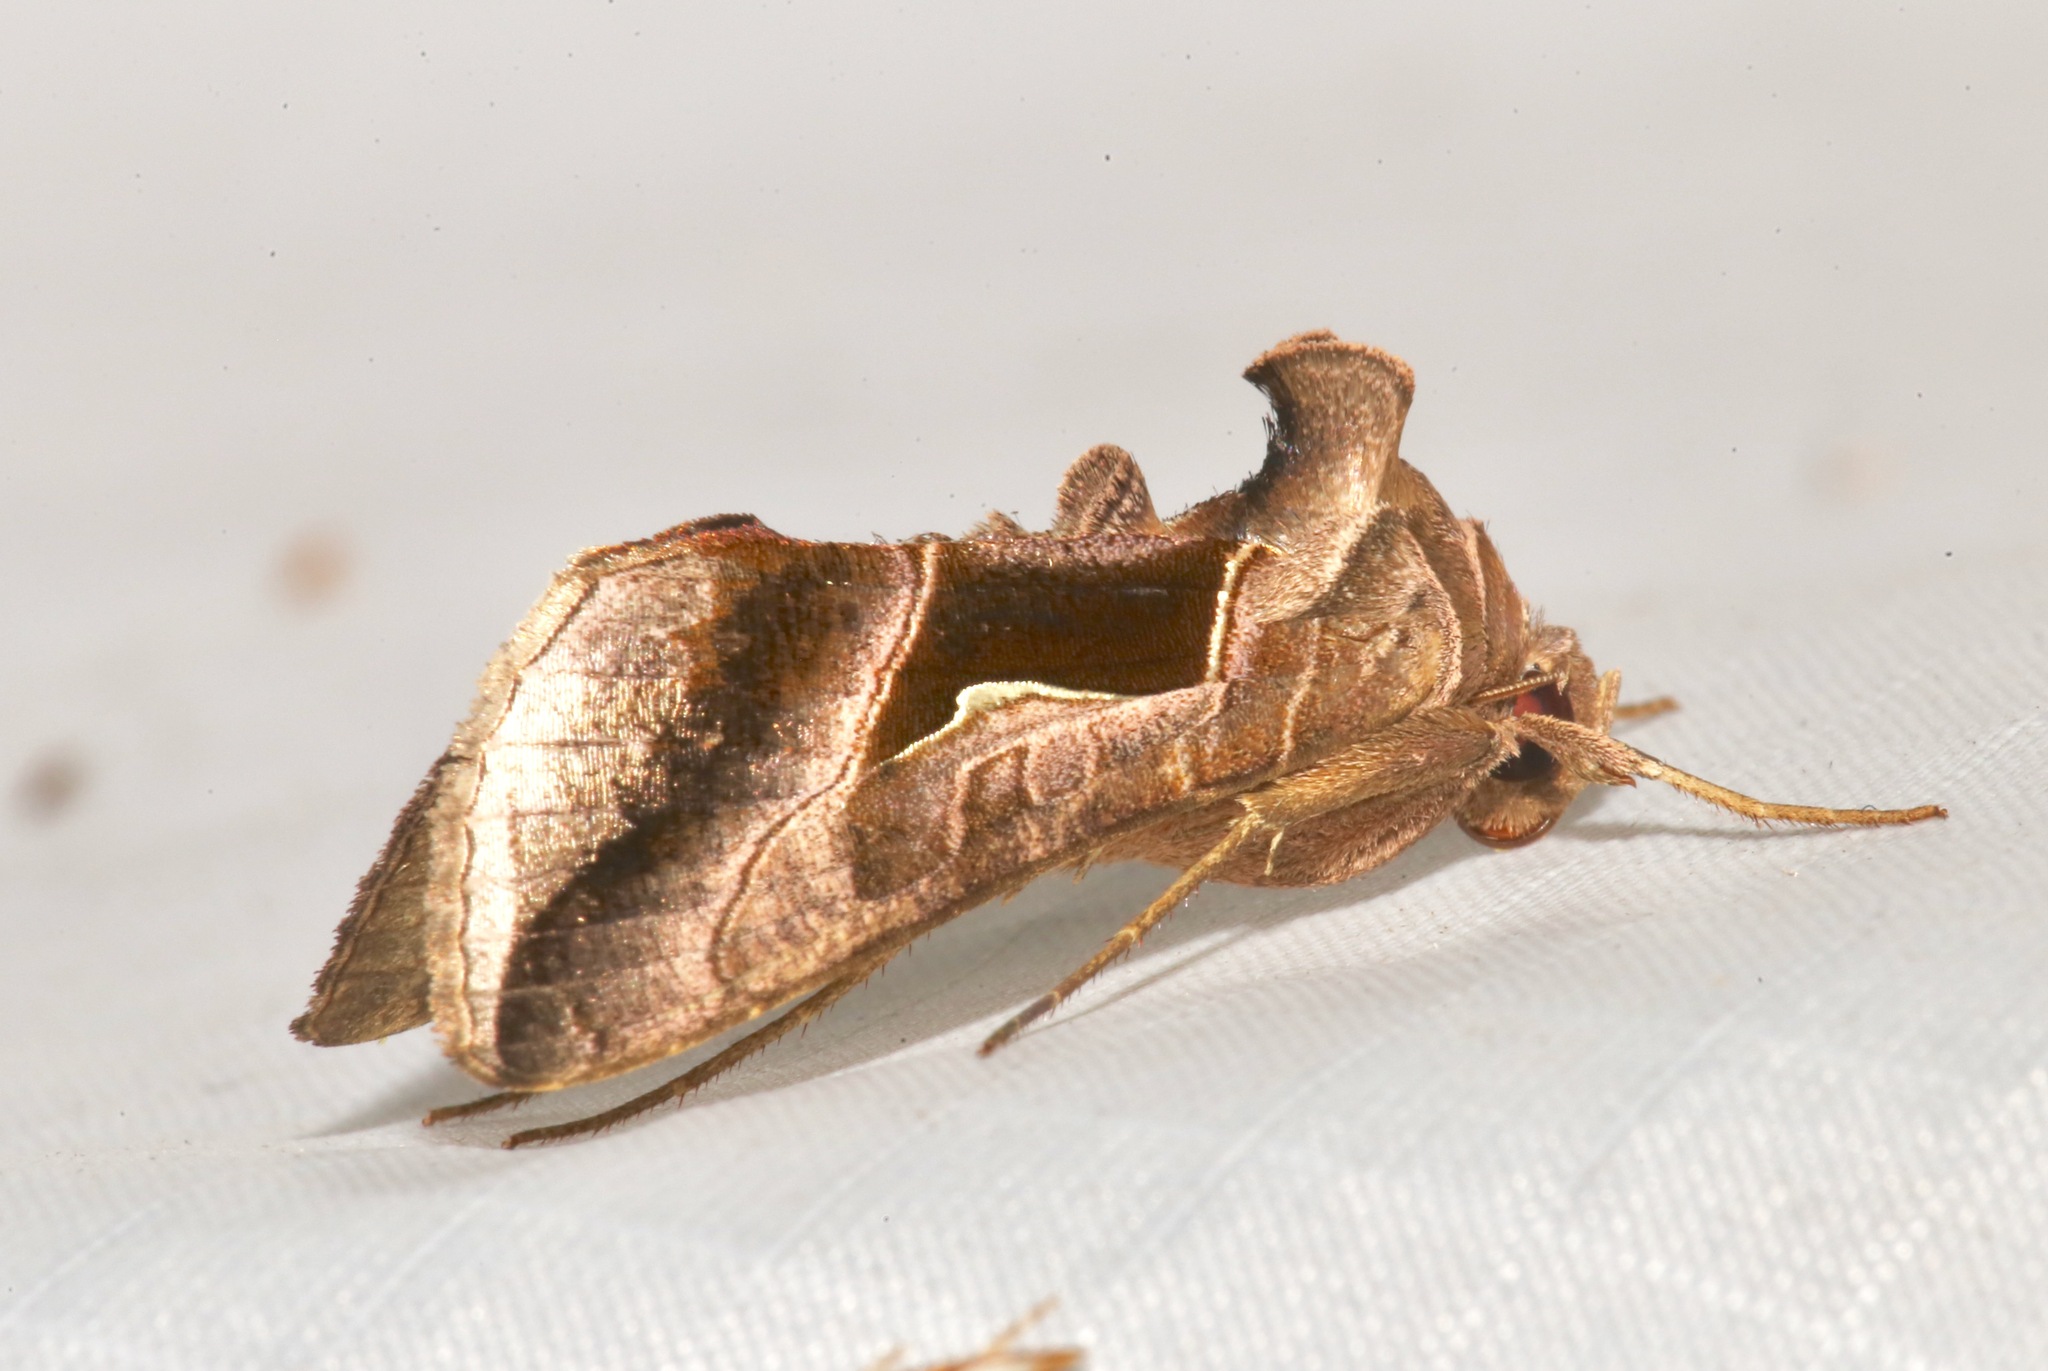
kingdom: Animalia
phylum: Arthropoda
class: Insecta
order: Lepidoptera
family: Noctuidae
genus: Enigmogramma
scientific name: Enigmogramma limata
